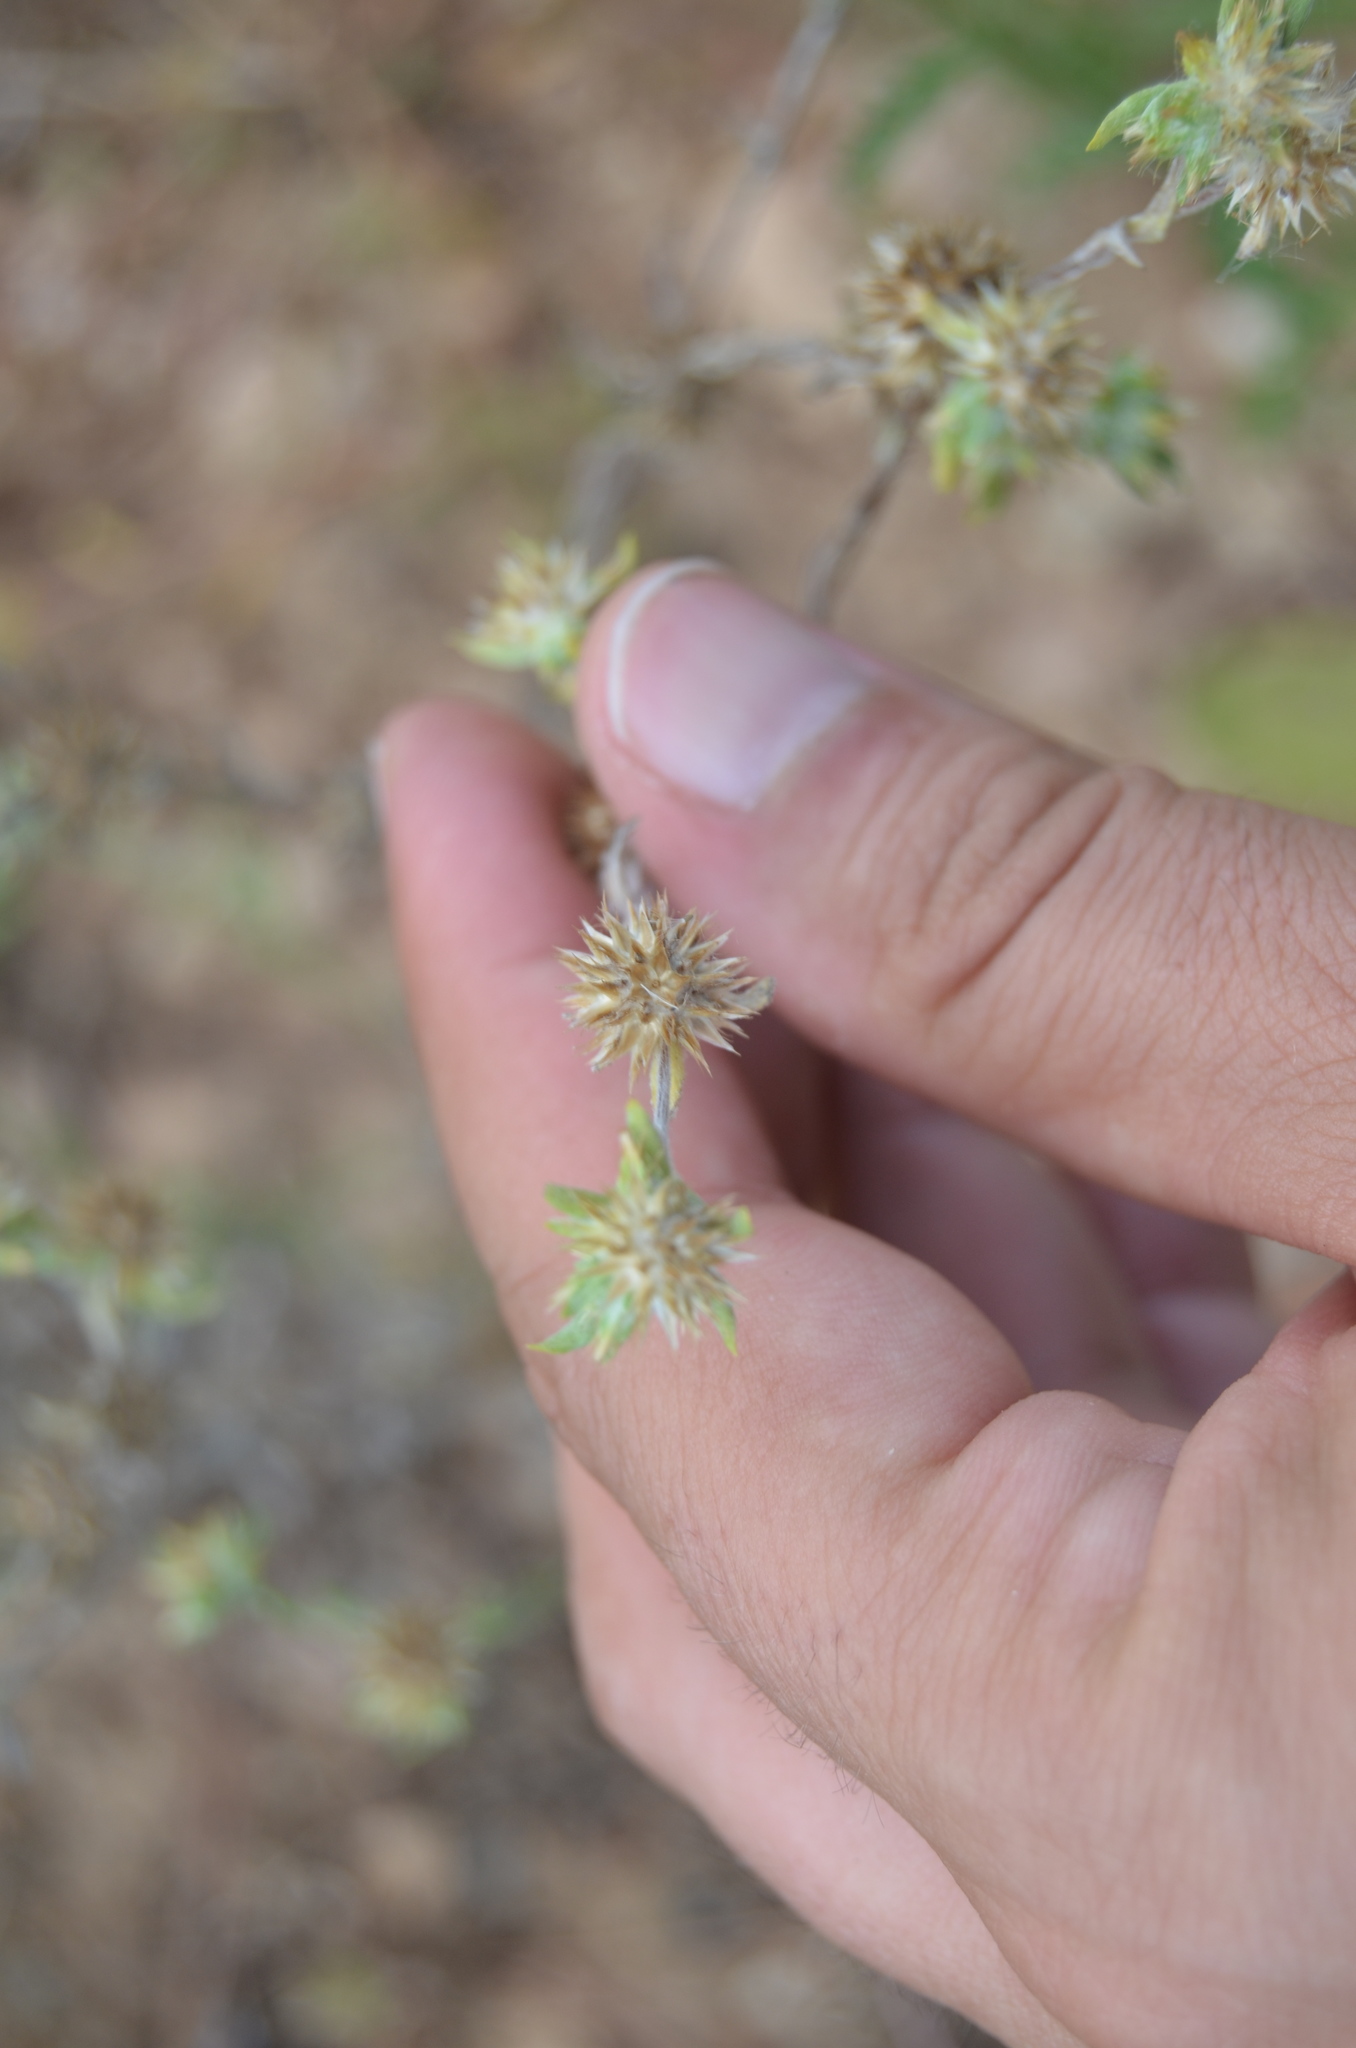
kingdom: Plantae
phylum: Tracheophyta
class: Magnoliopsida
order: Asterales
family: Asteraceae
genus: Filago
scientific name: Filago pyramidata
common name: Broad-leaved cudweed
